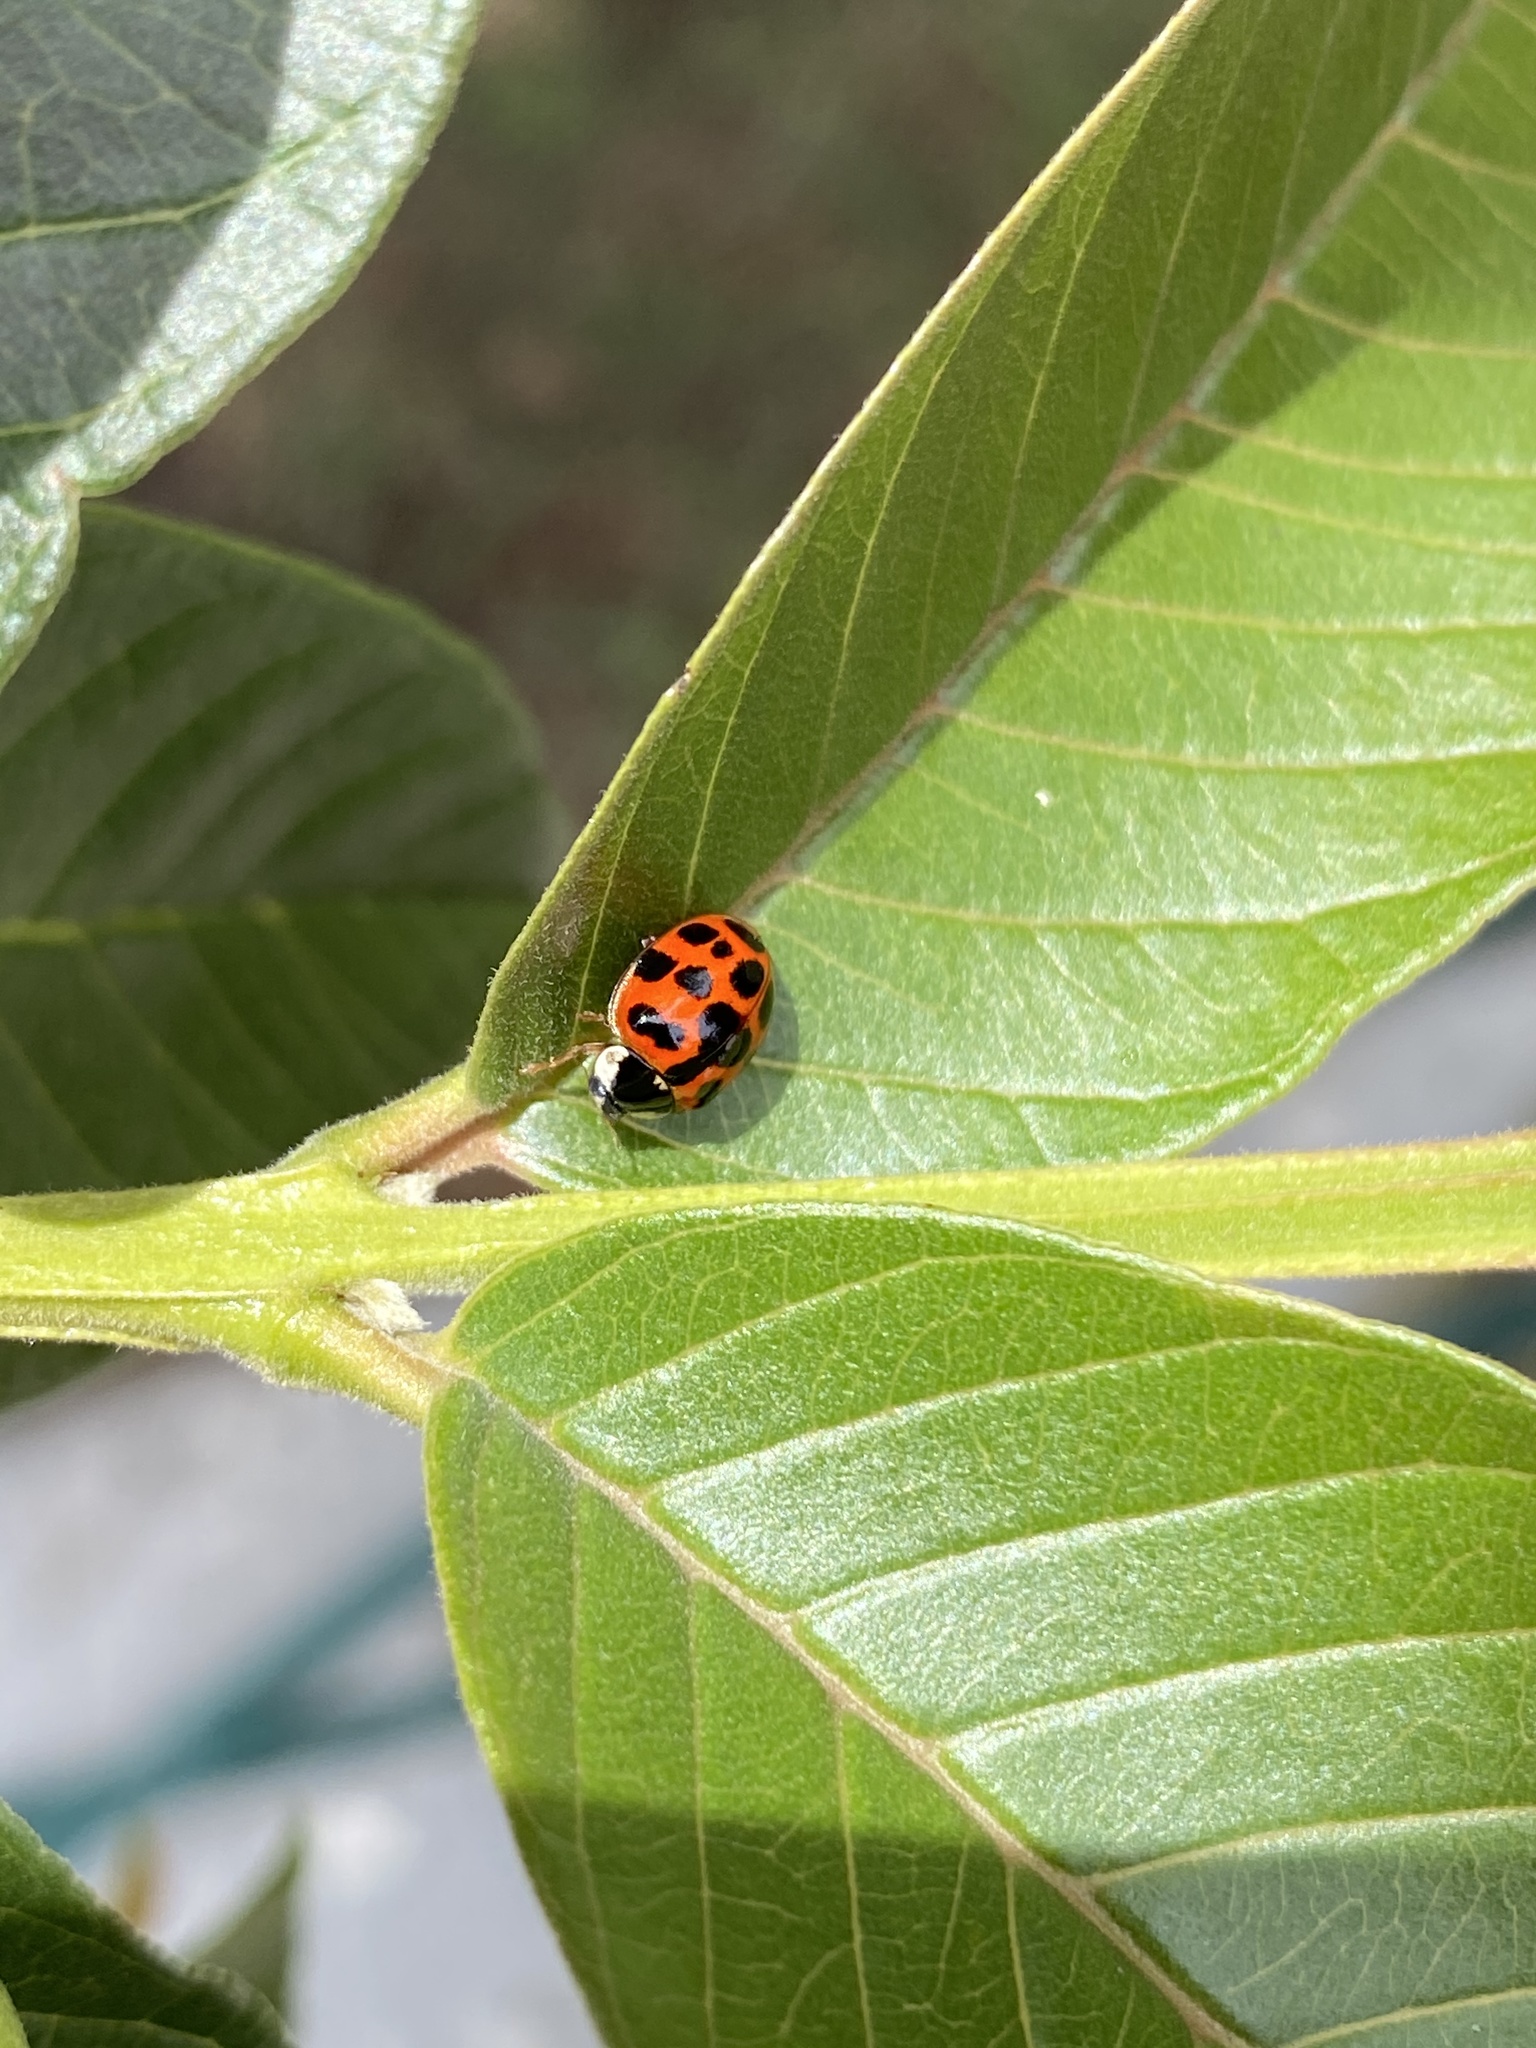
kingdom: Animalia
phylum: Arthropoda
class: Insecta
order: Coleoptera
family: Coccinellidae
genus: Harmonia
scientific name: Harmonia axyridis
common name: Harlequin ladybird
